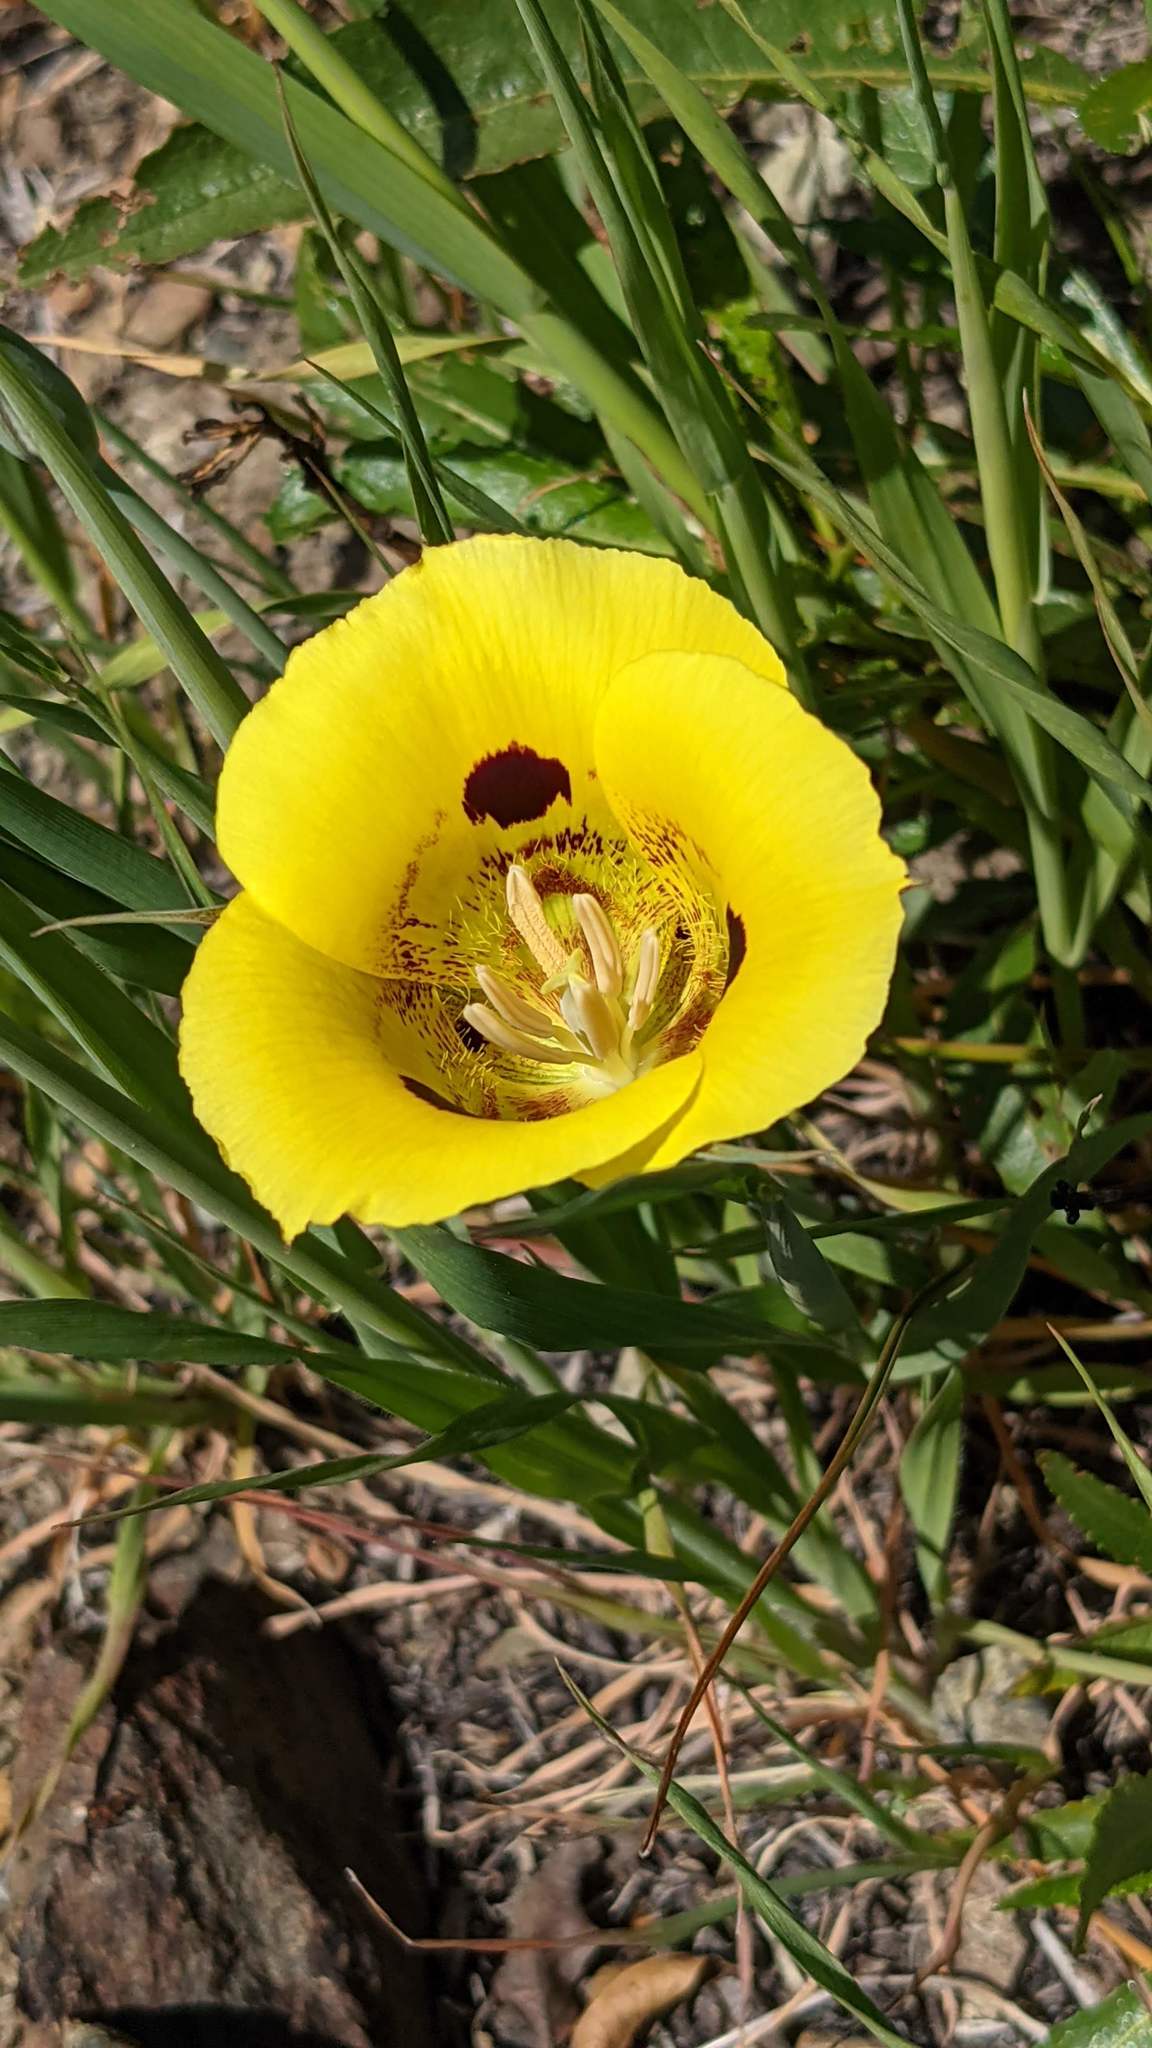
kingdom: Plantae
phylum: Tracheophyta
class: Liliopsida
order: Liliales
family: Liliaceae
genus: Calochortus
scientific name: Calochortus luteus
